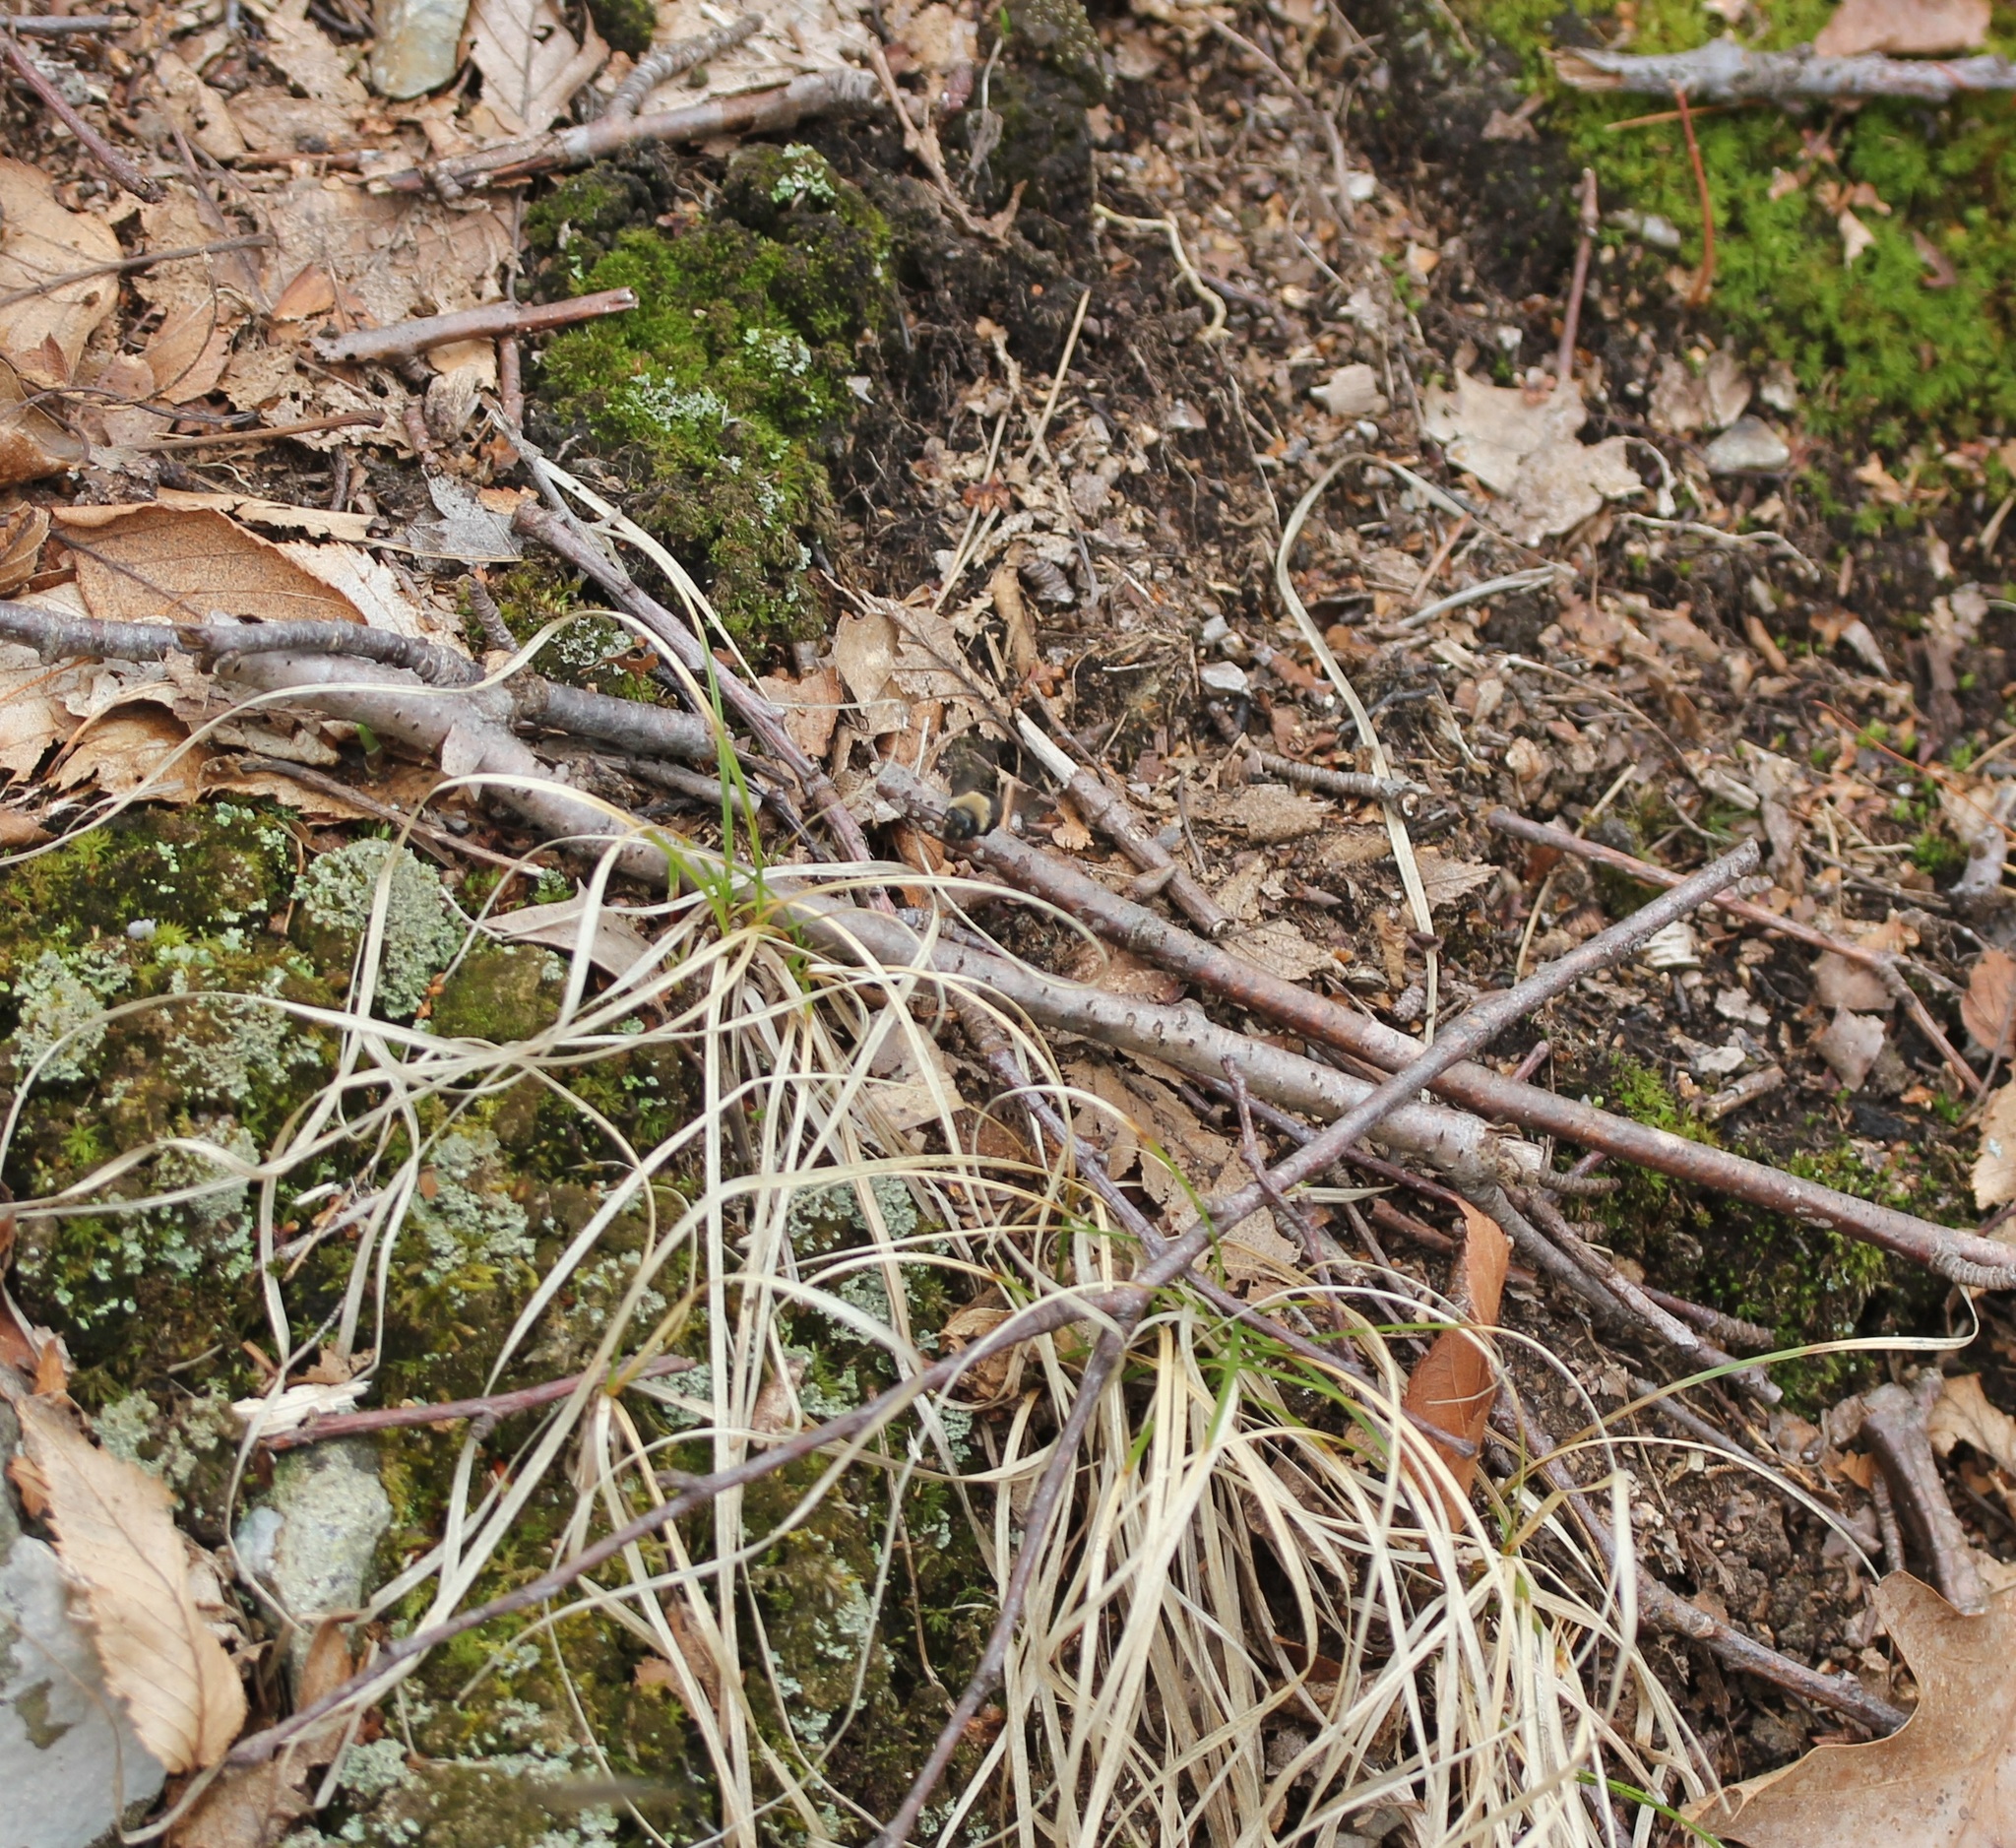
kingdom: Animalia
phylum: Arthropoda
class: Insecta
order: Hymenoptera
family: Andrenidae
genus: Andrena
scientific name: Andrena vicina
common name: Neighborly mining bee
